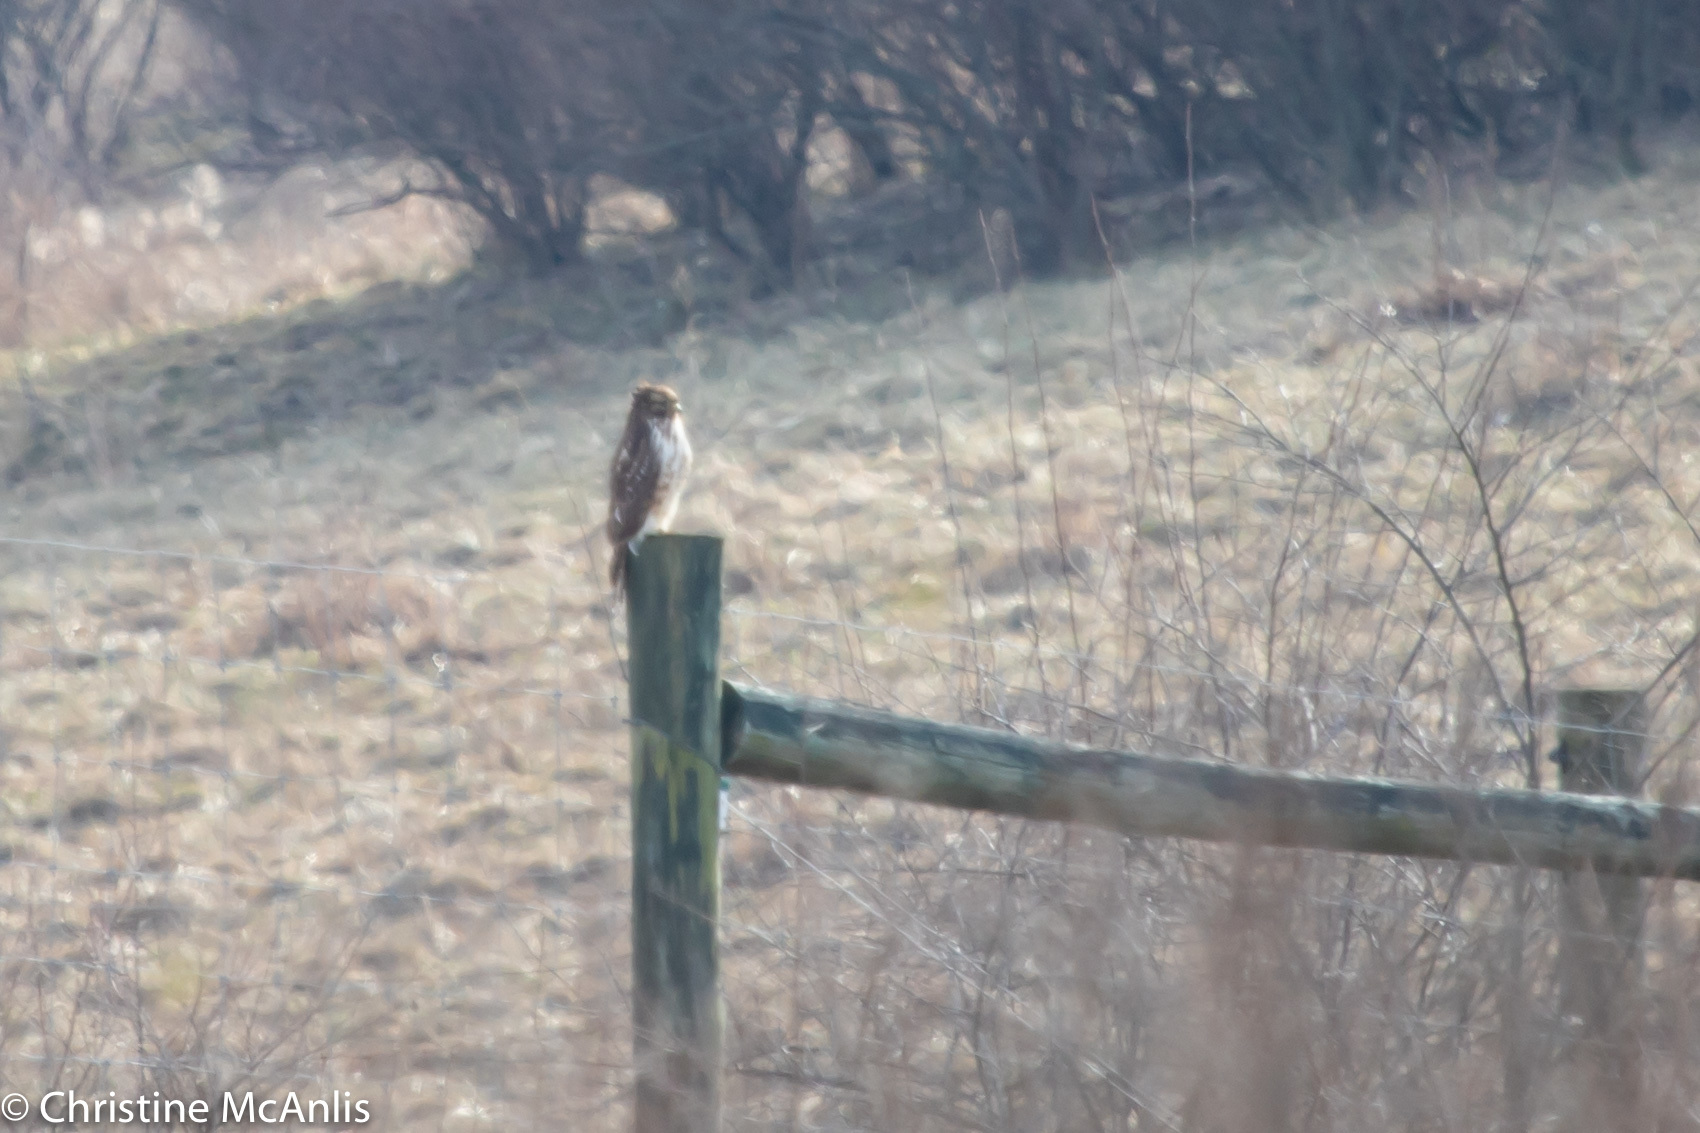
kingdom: Animalia
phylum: Chordata
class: Aves
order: Accipitriformes
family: Accipitridae
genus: Buteo
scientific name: Buteo lineatus
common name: Red-shouldered hawk
